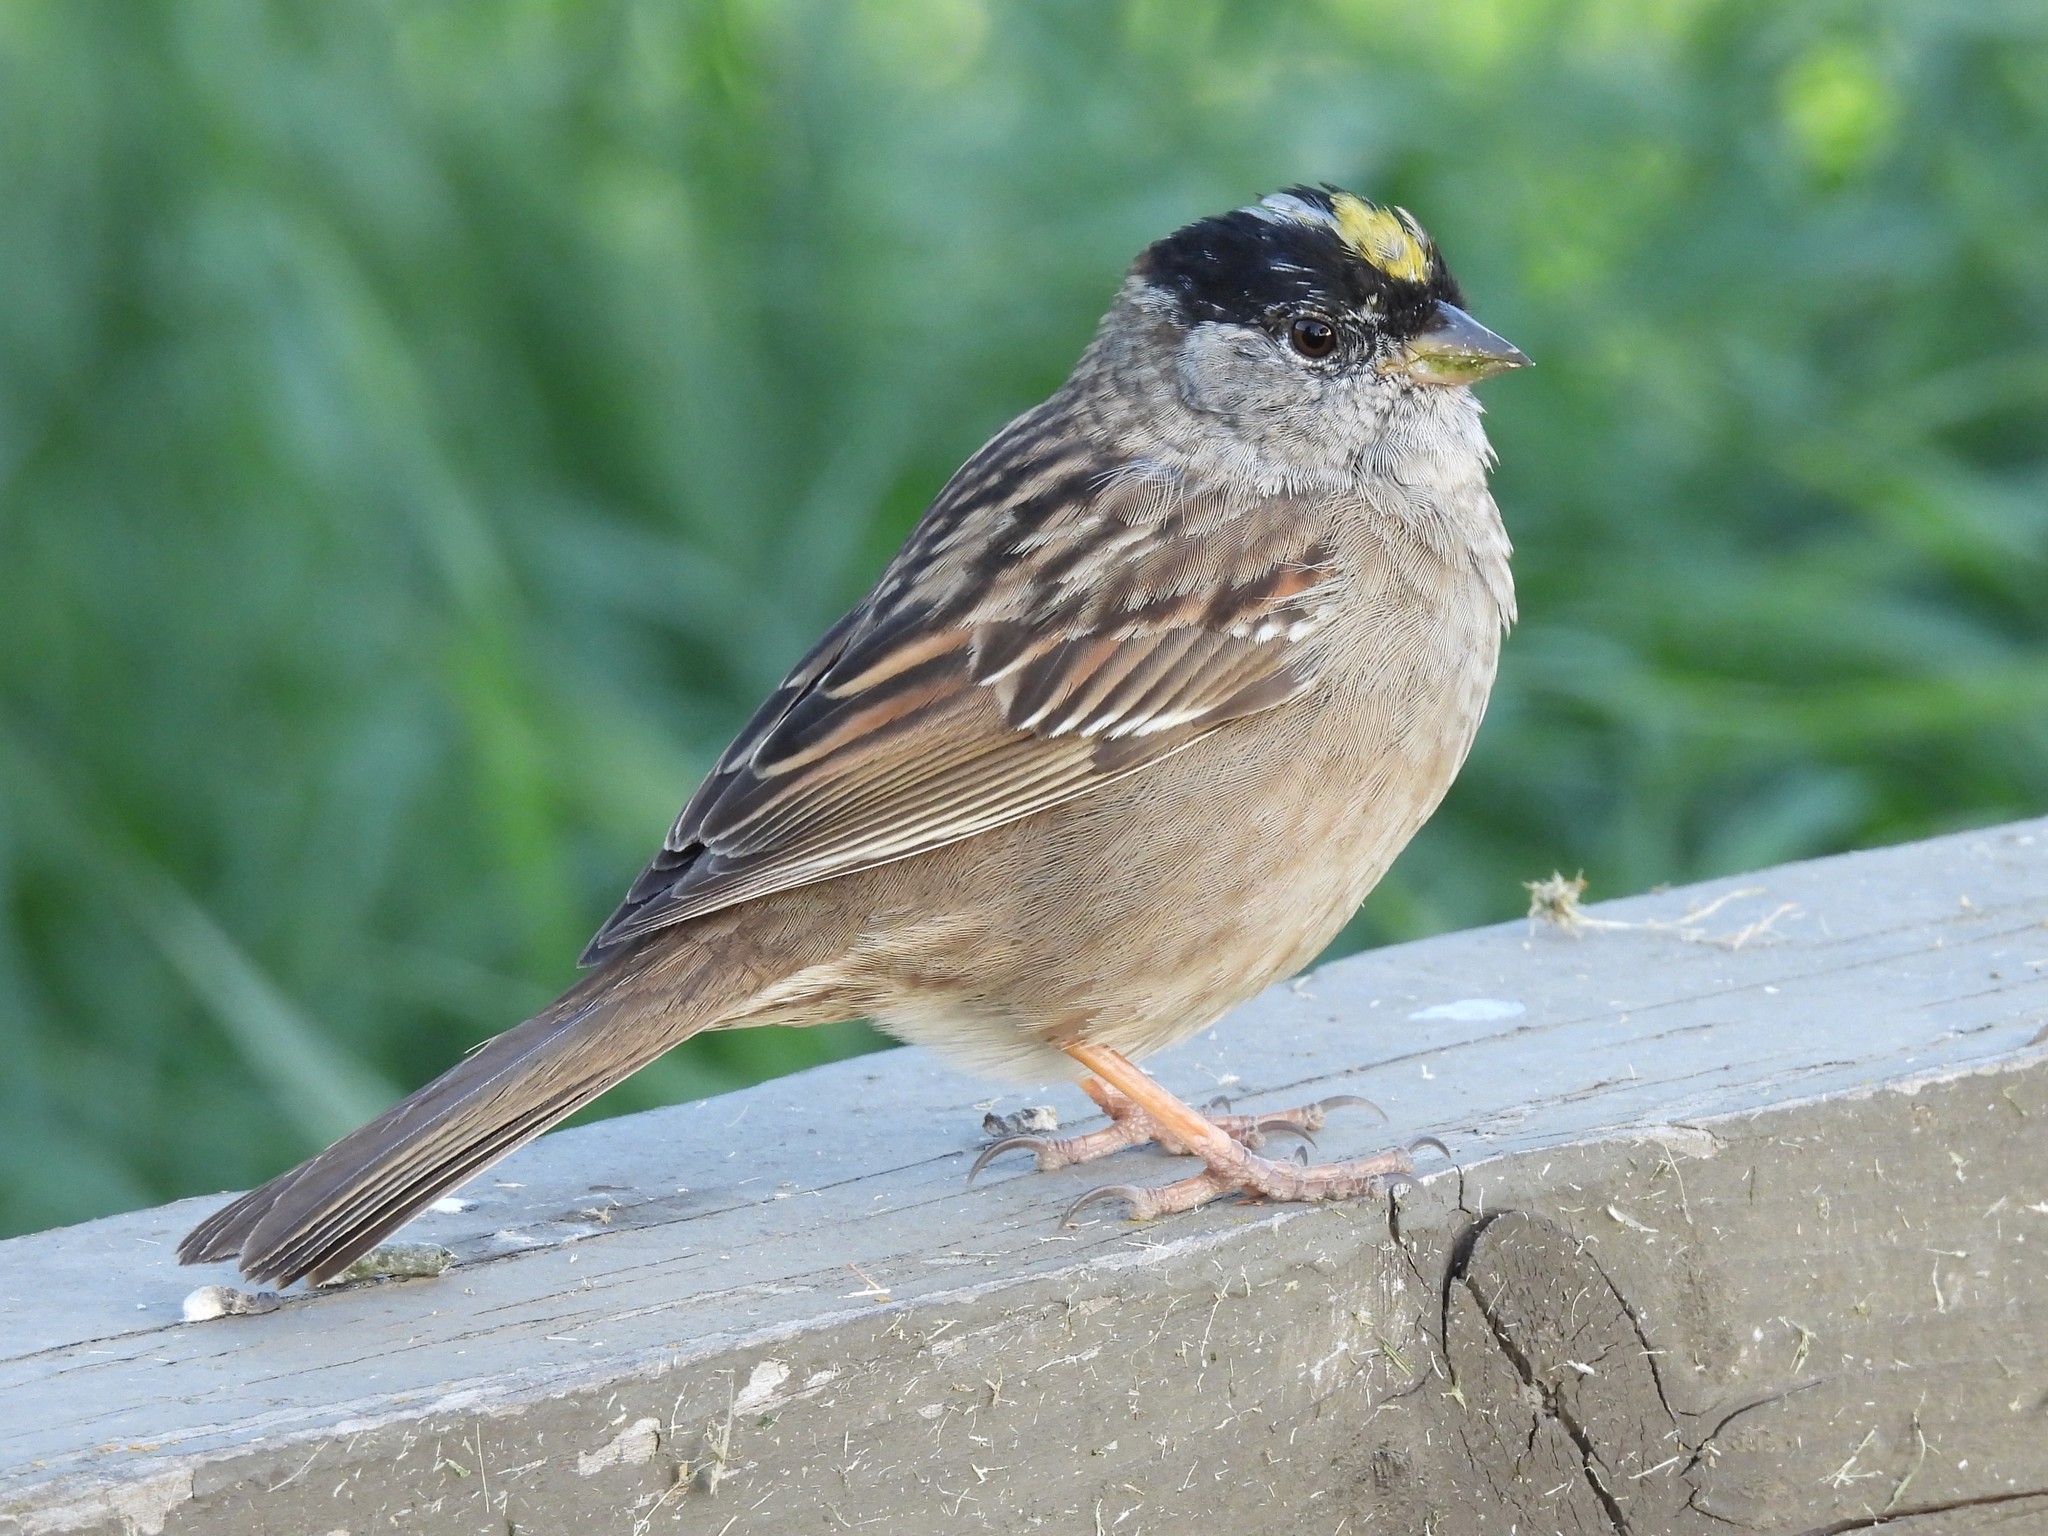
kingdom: Animalia
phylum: Chordata
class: Aves
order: Passeriformes
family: Passerellidae
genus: Zonotrichia
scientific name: Zonotrichia atricapilla
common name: Golden-crowned sparrow
